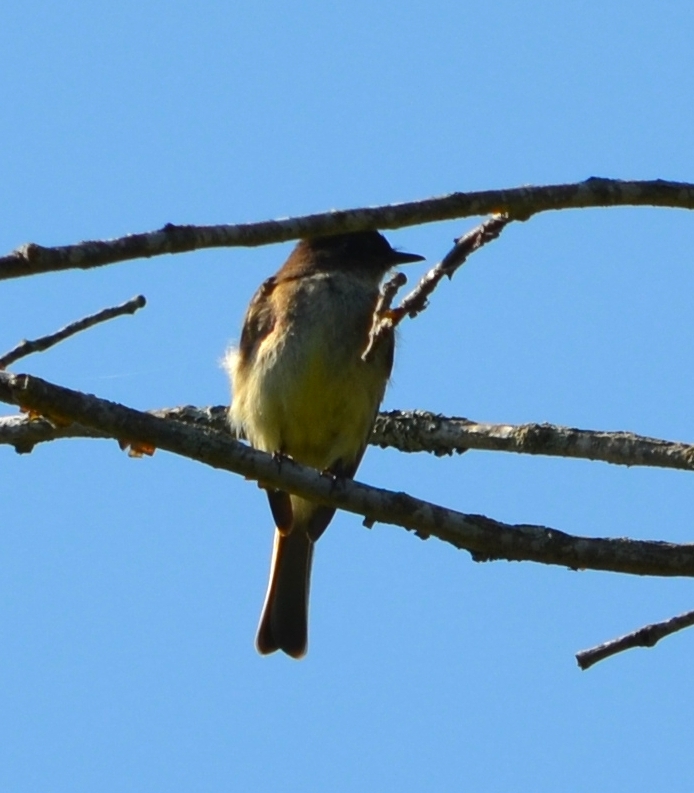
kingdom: Animalia
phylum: Chordata
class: Aves
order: Passeriformes
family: Tyrannidae
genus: Sayornis
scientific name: Sayornis phoebe
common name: Eastern phoebe
